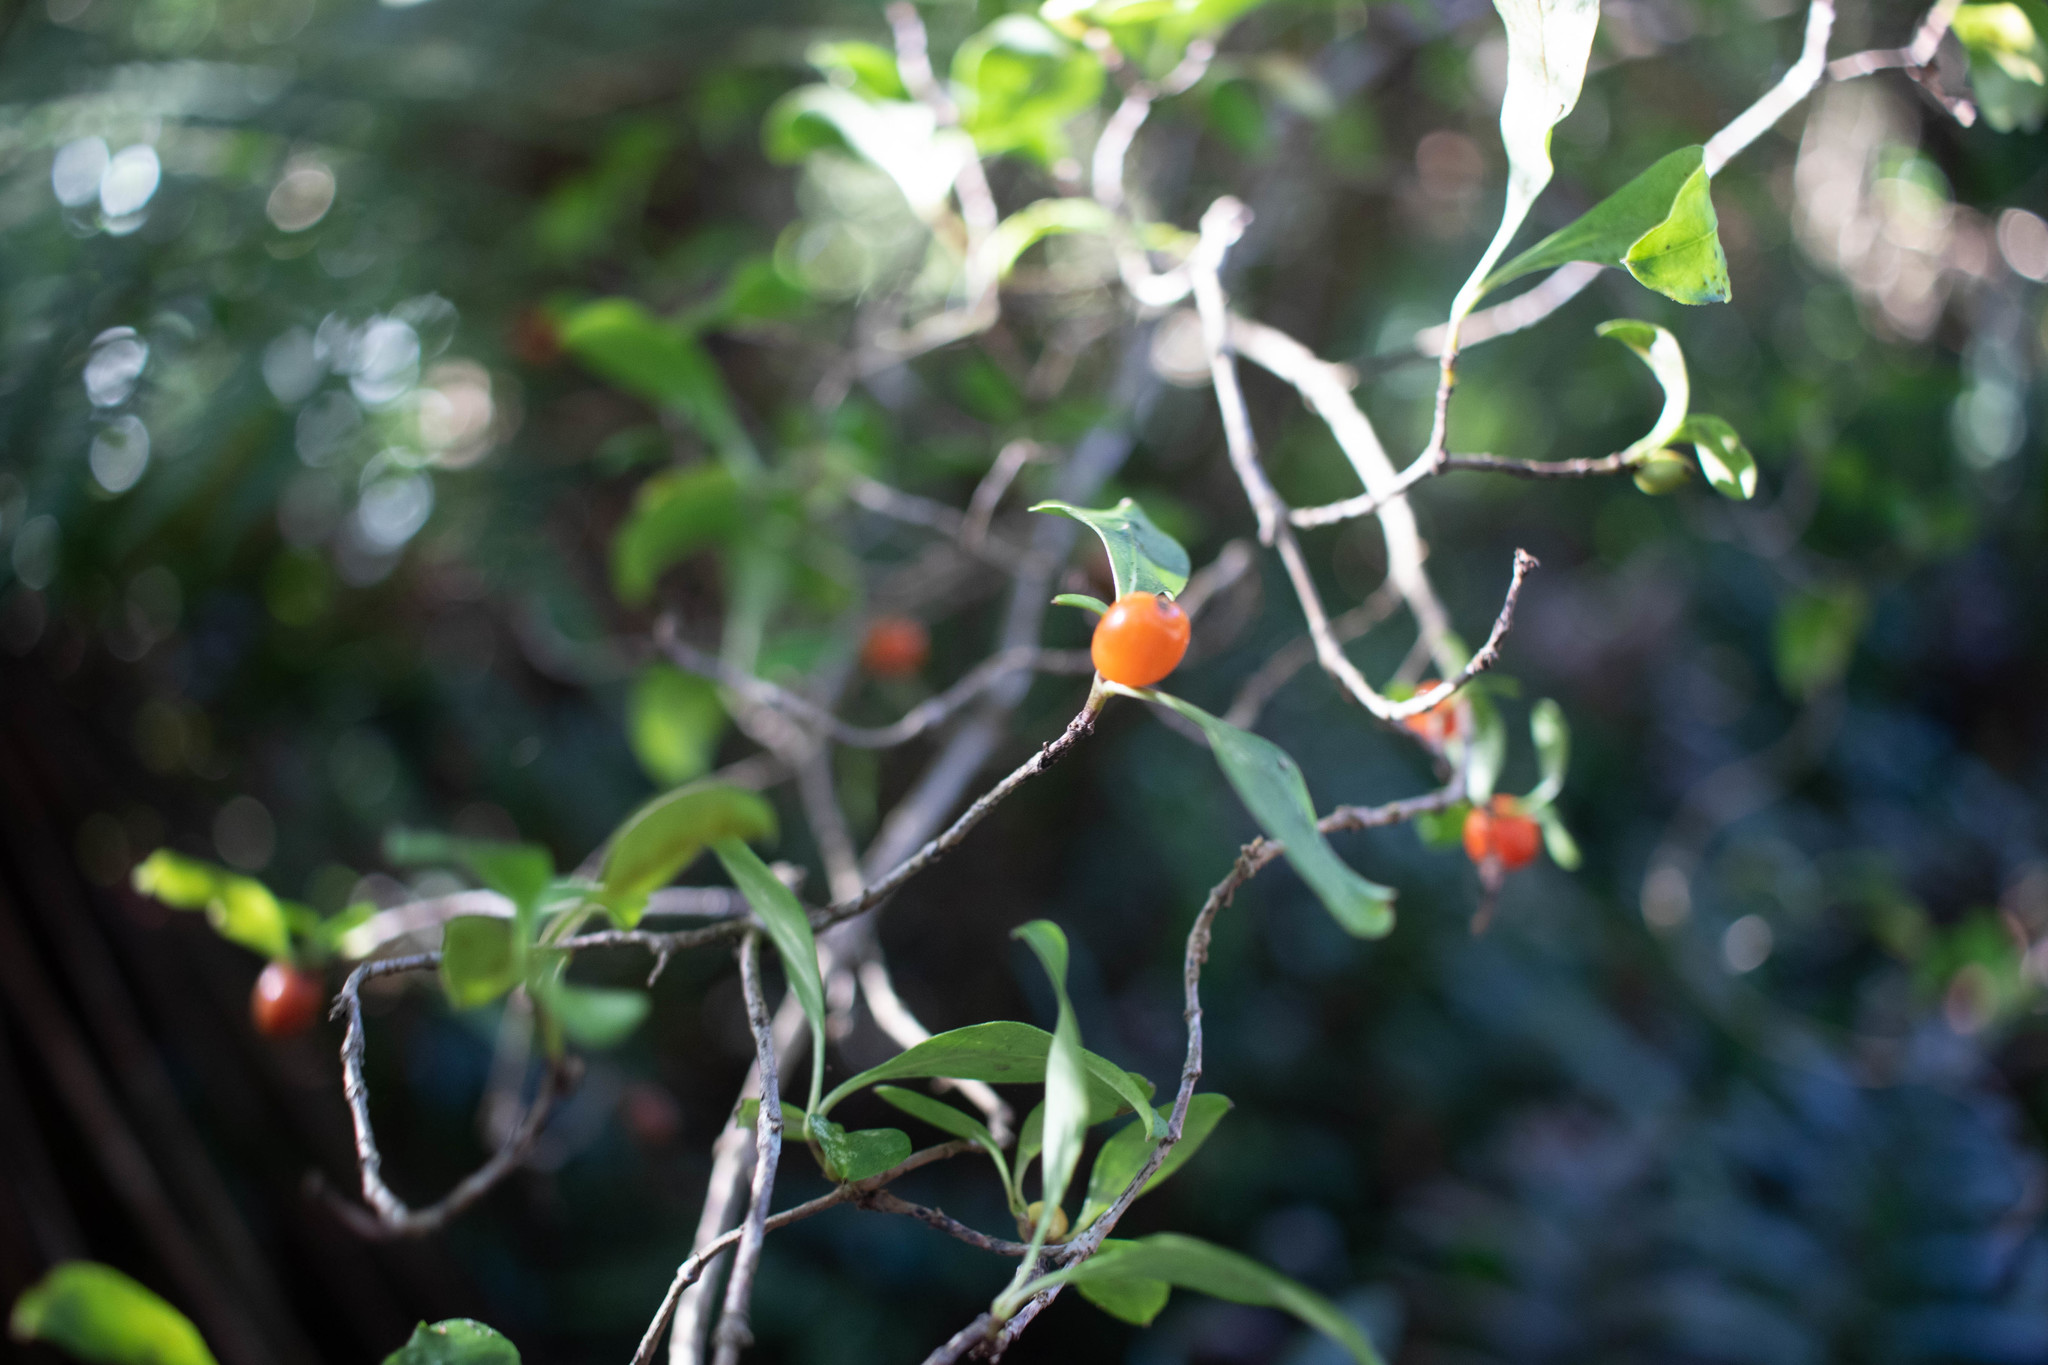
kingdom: Plantae
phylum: Tracheophyta
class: Magnoliopsida
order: Gentianales
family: Rubiaceae
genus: Coprosma
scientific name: Coprosma foetidissima
